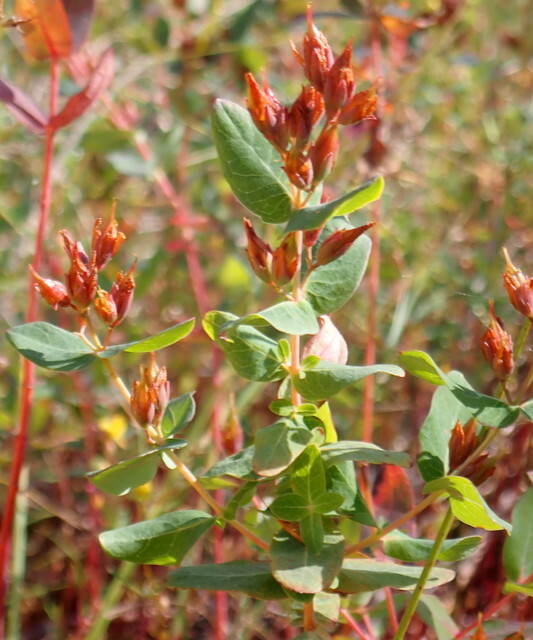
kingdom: Plantae
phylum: Tracheophyta
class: Magnoliopsida
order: Malpighiales
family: Hypericaceae
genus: Triadenum
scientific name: Triadenum virginicum
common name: Marsh st. john's-wort
